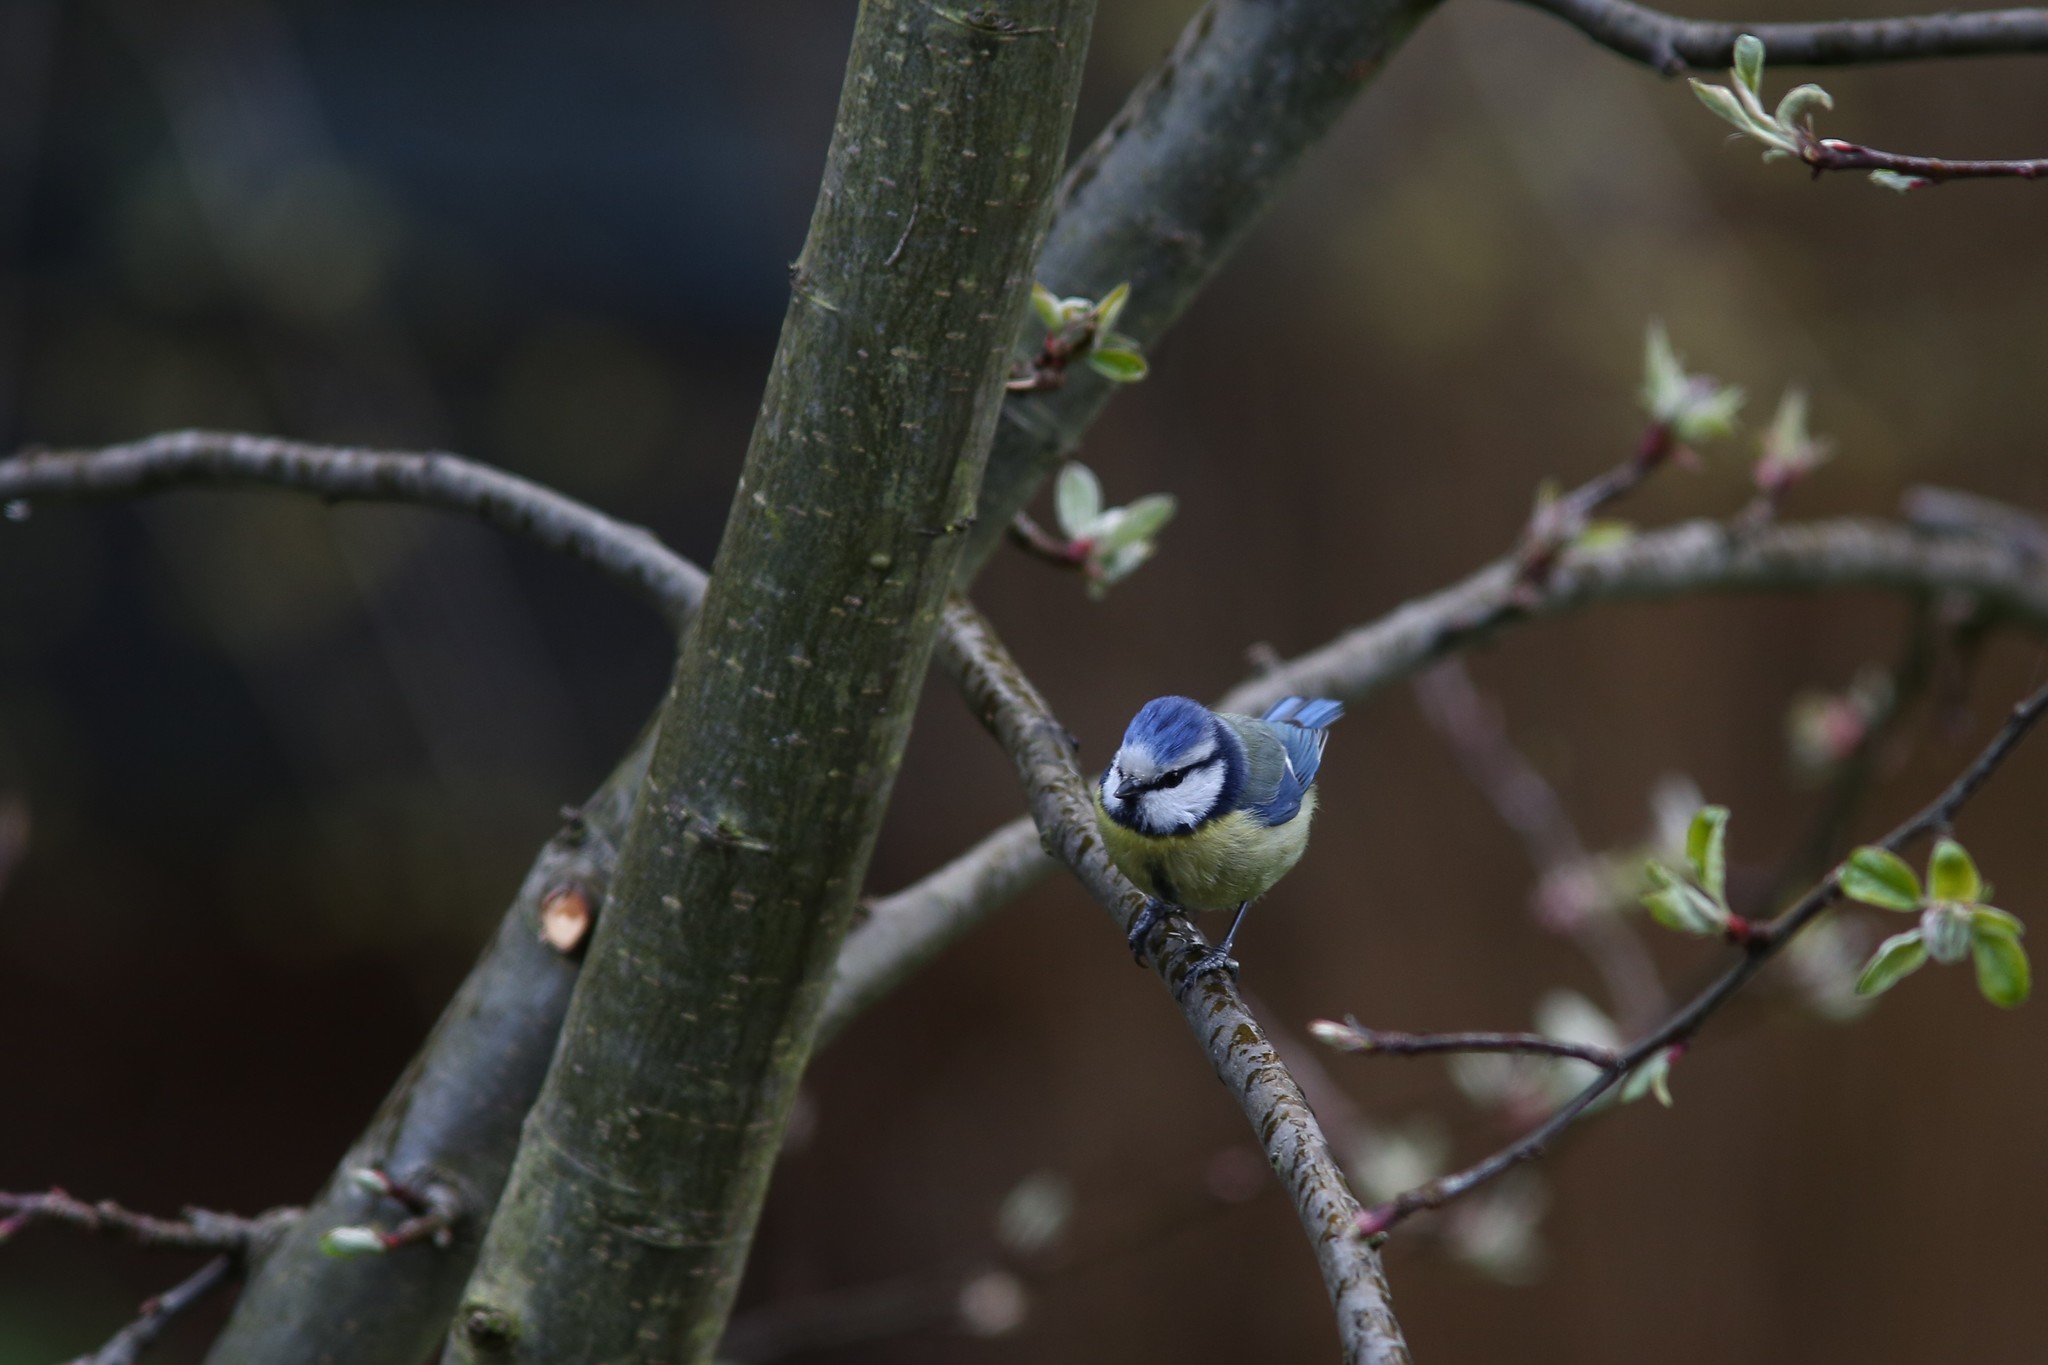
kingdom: Animalia
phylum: Chordata
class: Aves
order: Passeriformes
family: Paridae
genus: Cyanistes
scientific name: Cyanistes caeruleus
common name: Eurasian blue tit
